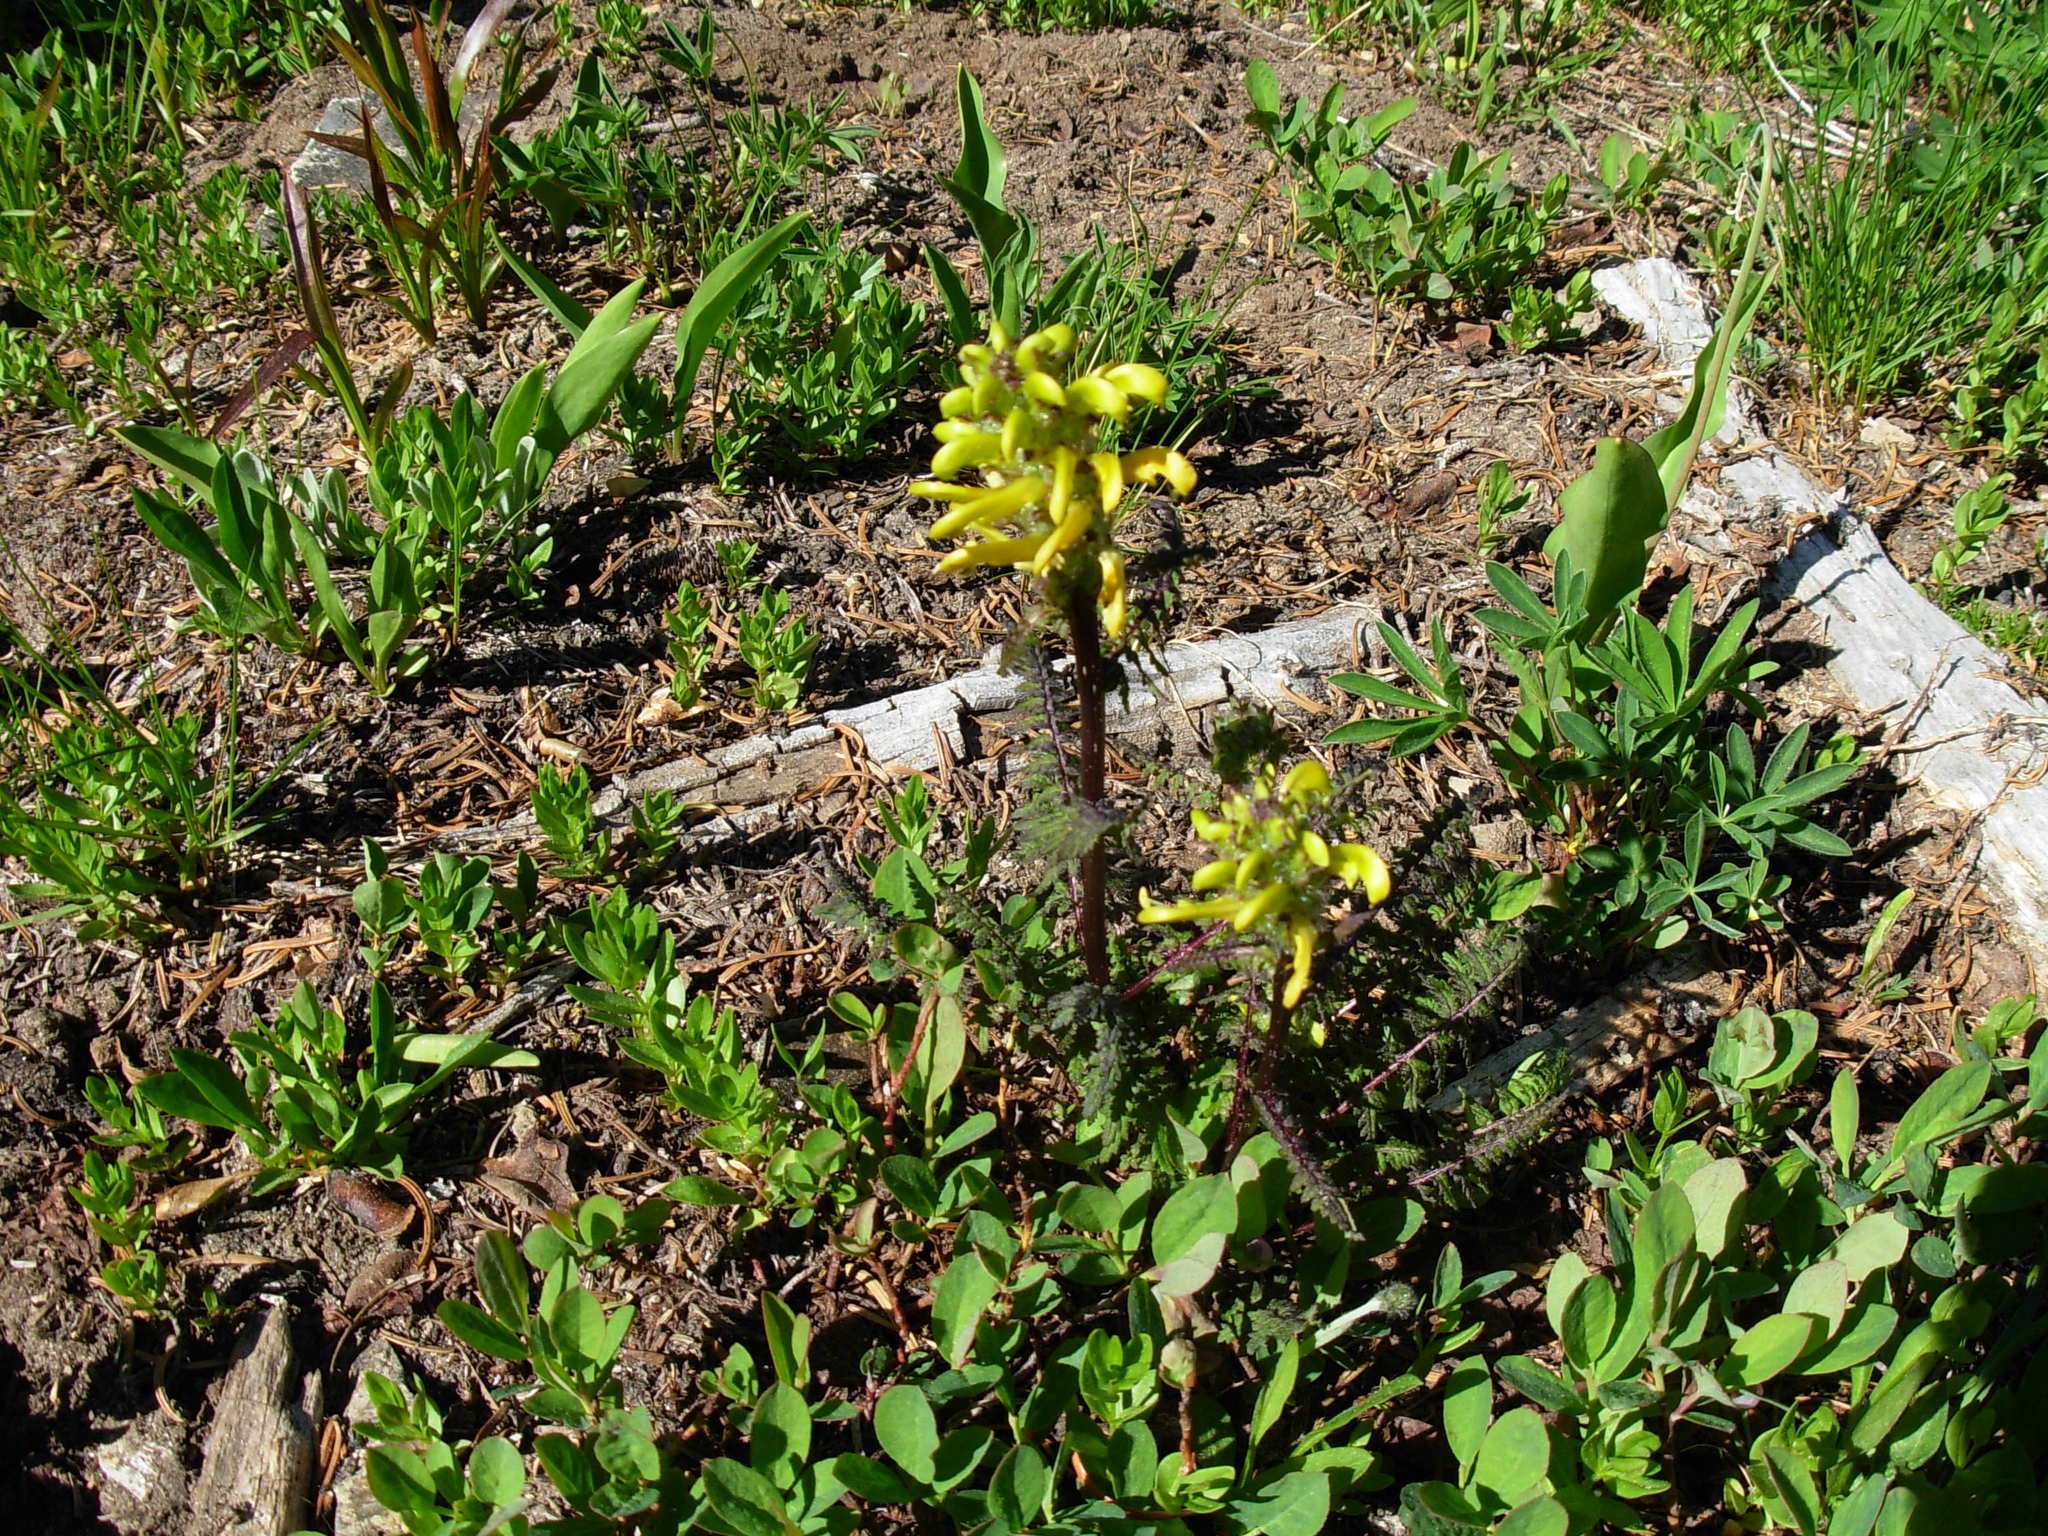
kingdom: Plantae
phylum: Tracheophyta
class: Magnoliopsida
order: Lamiales
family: Orobanchaceae
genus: Pedicularis
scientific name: Pedicularis rainierensis
